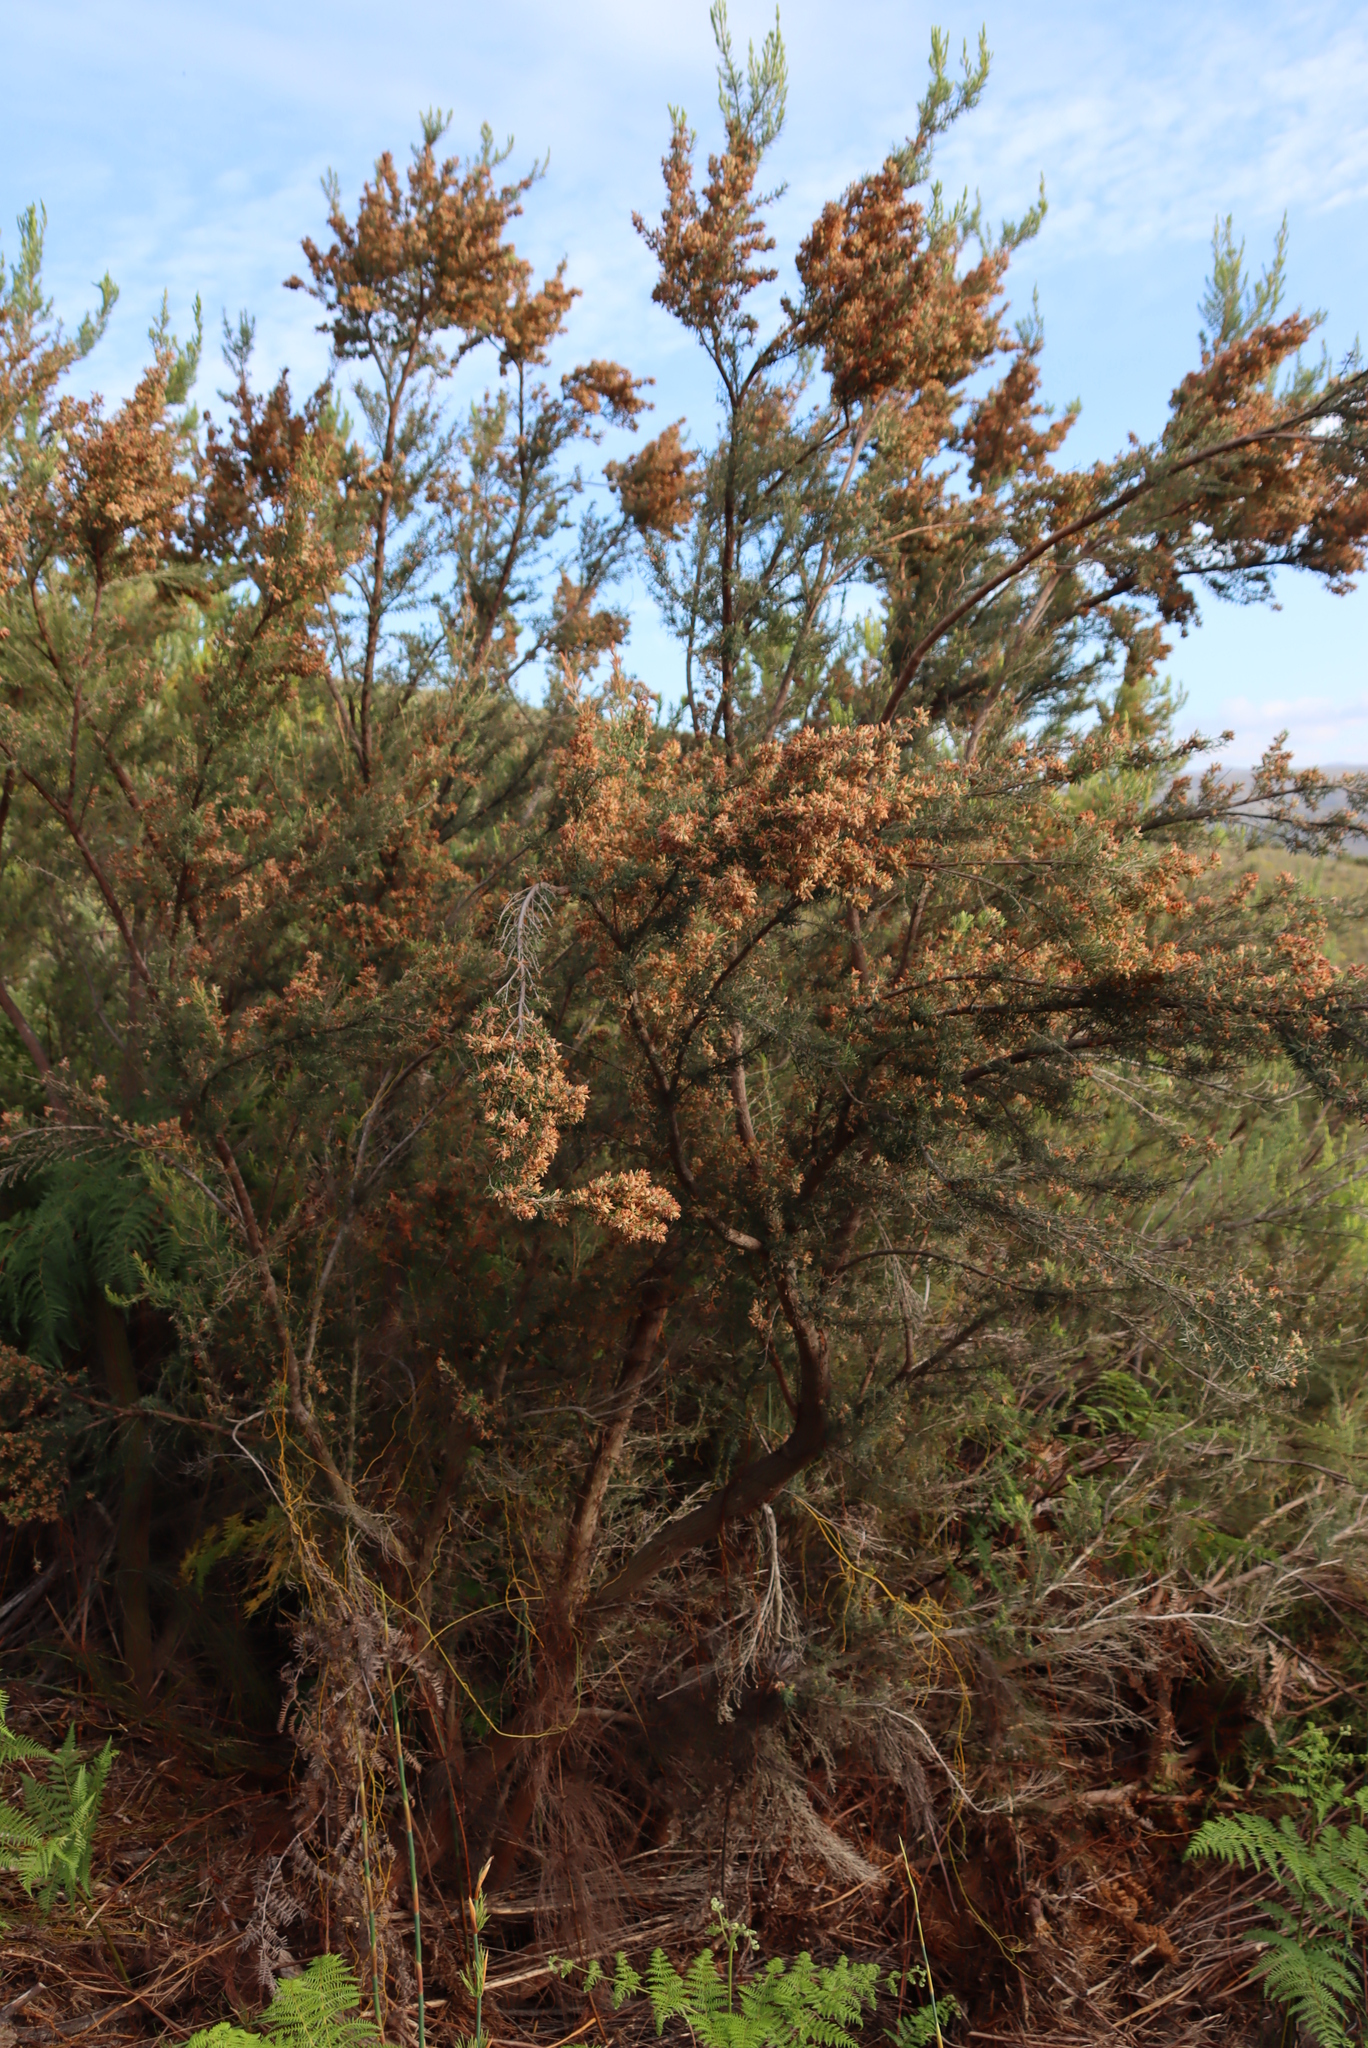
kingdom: Plantae
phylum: Tracheophyta
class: Magnoliopsida
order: Ericales
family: Ericaceae
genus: Erica
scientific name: Erica caffra
